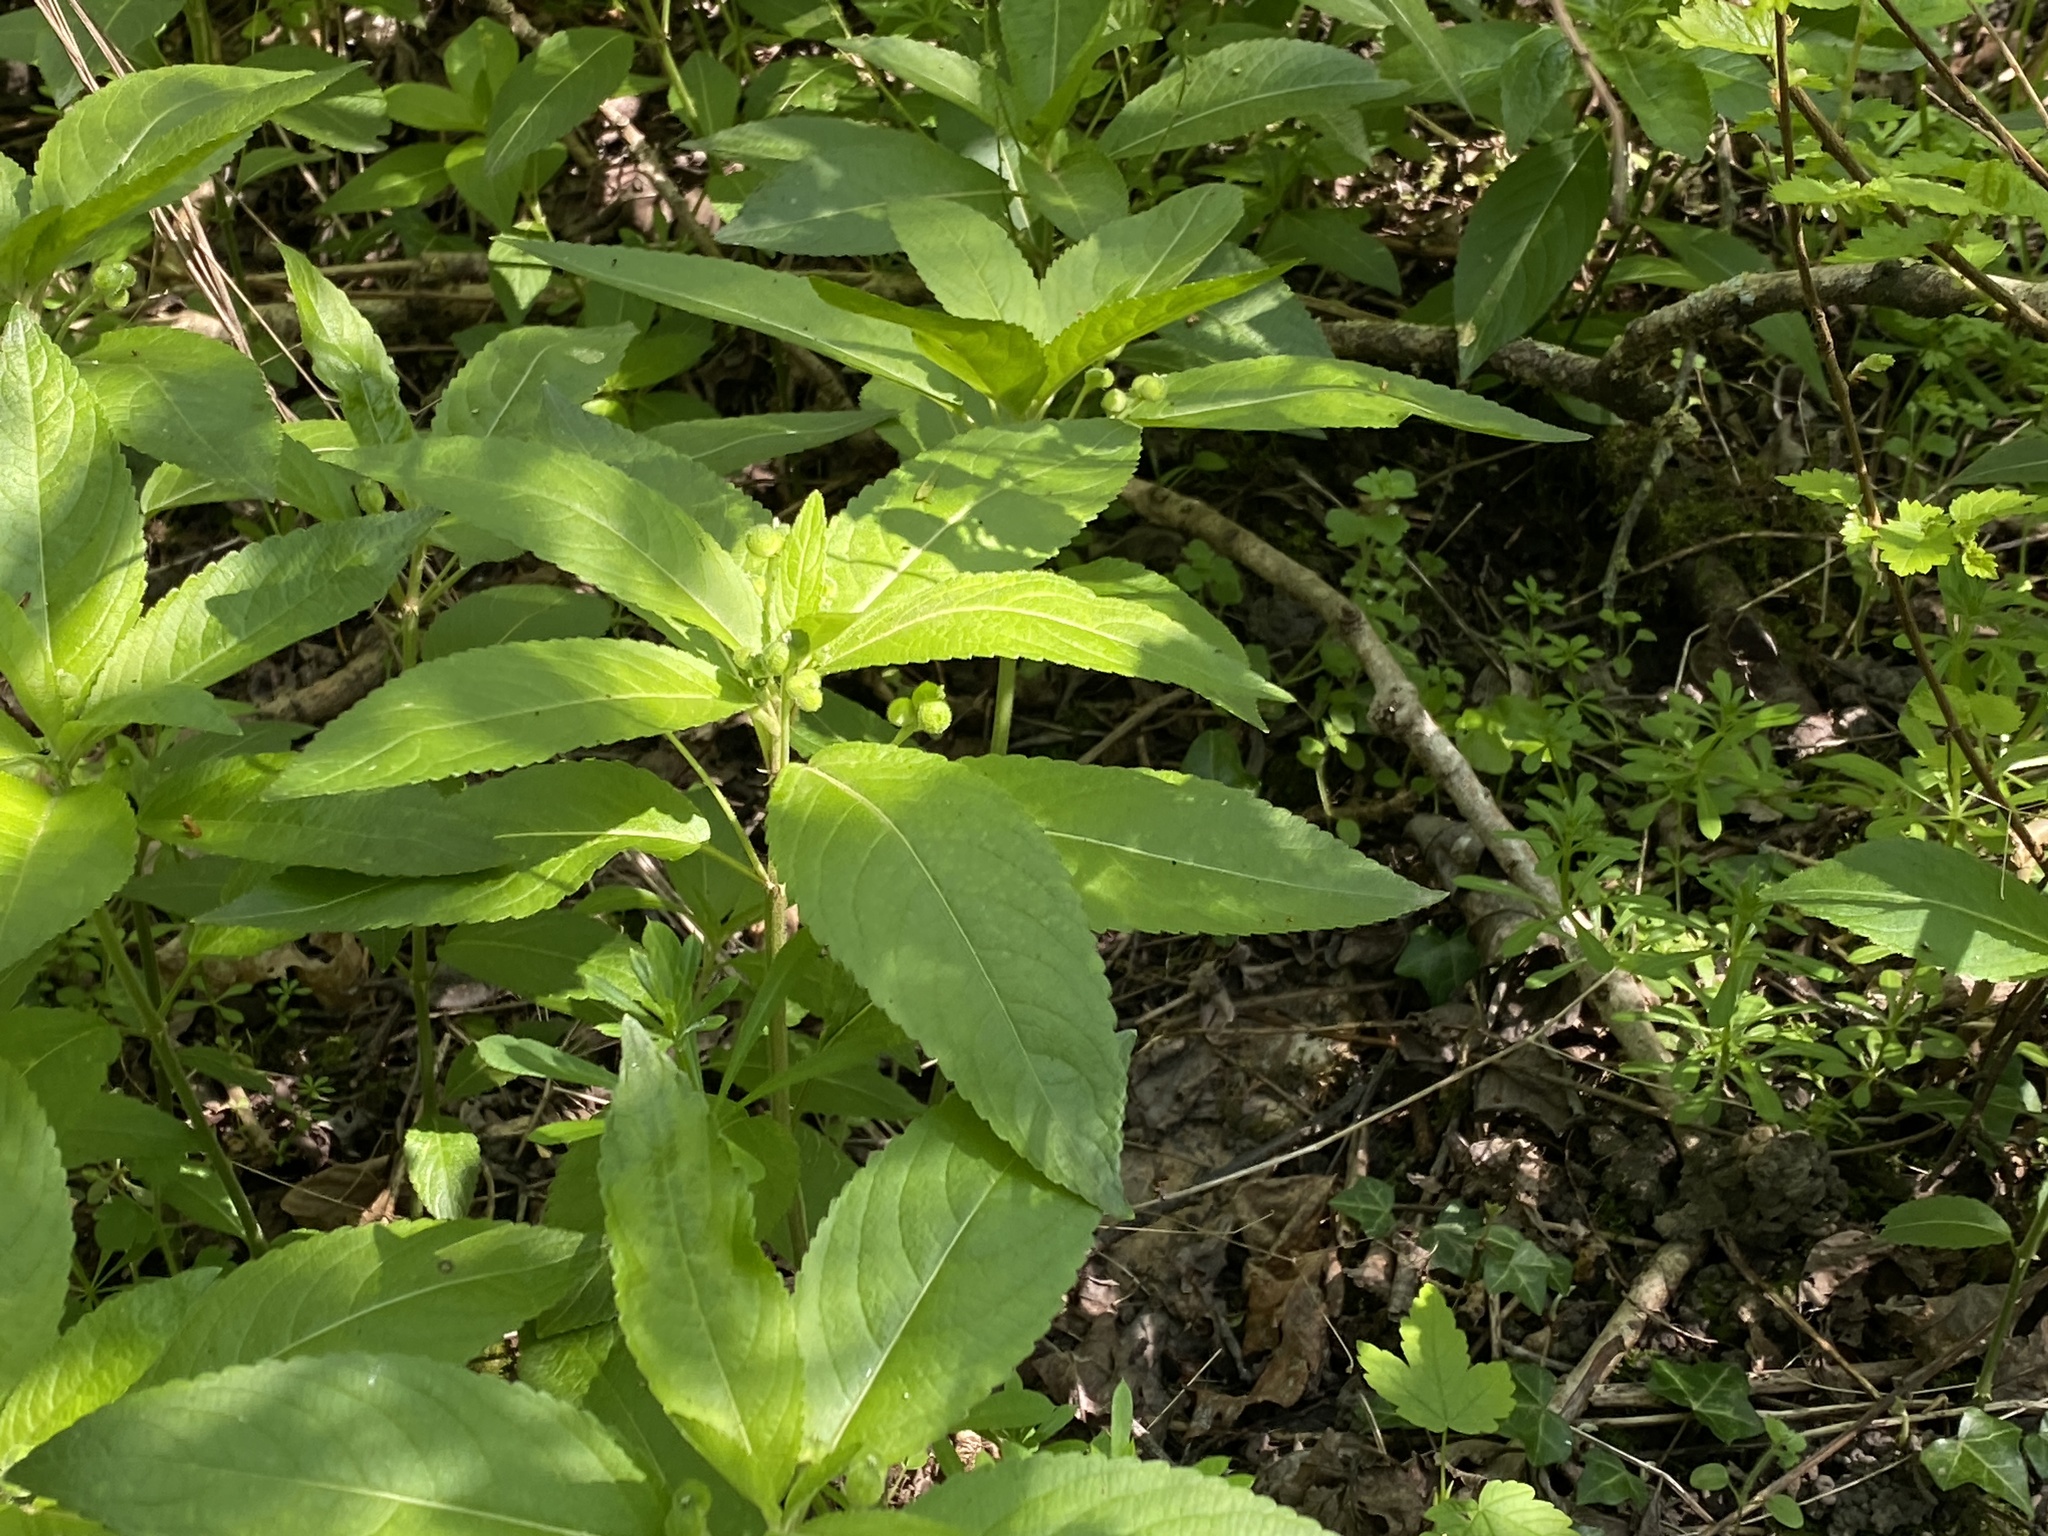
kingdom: Plantae
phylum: Tracheophyta
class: Magnoliopsida
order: Malpighiales
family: Euphorbiaceae
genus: Mercurialis
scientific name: Mercurialis perennis
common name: Dog mercury
